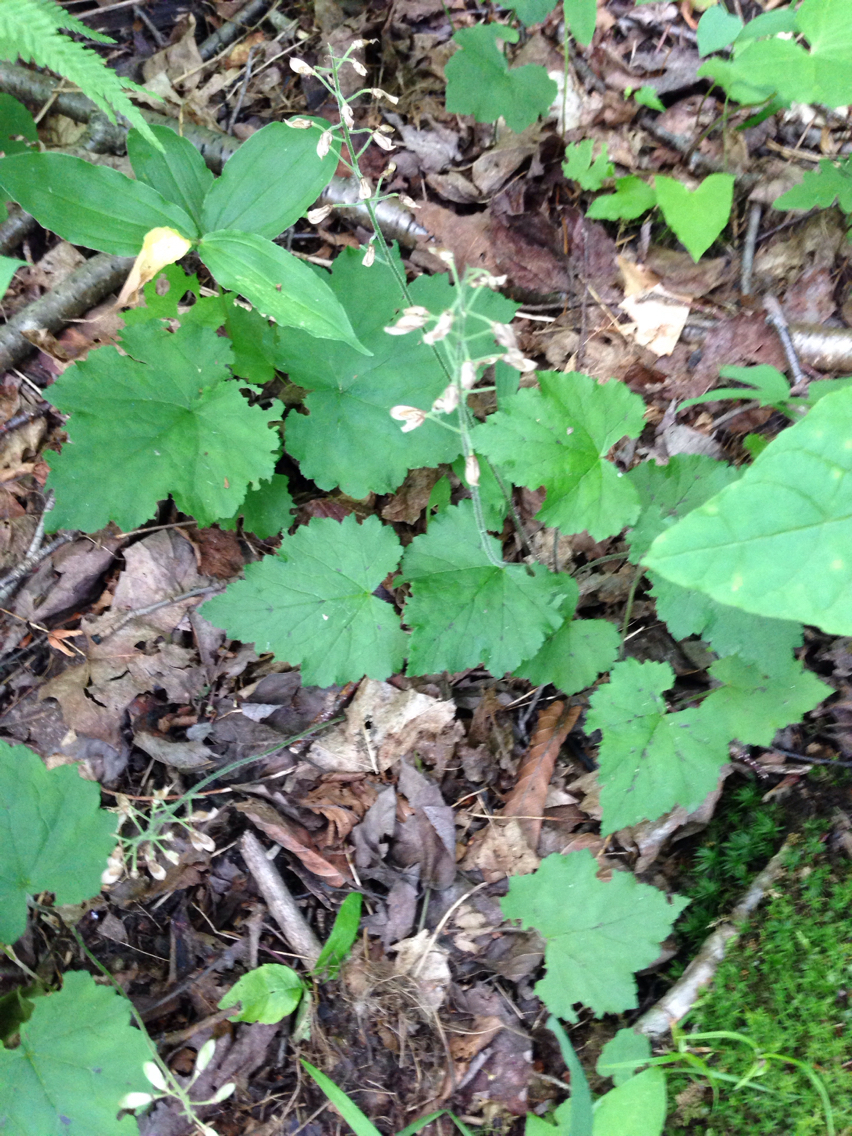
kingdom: Plantae
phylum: Tracheophyta
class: Magnoliopsida
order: Saxifragales
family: Saxifragaceae
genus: Tiarella
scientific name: Tiarella stolonifera
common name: Stoloniferous foamflower
